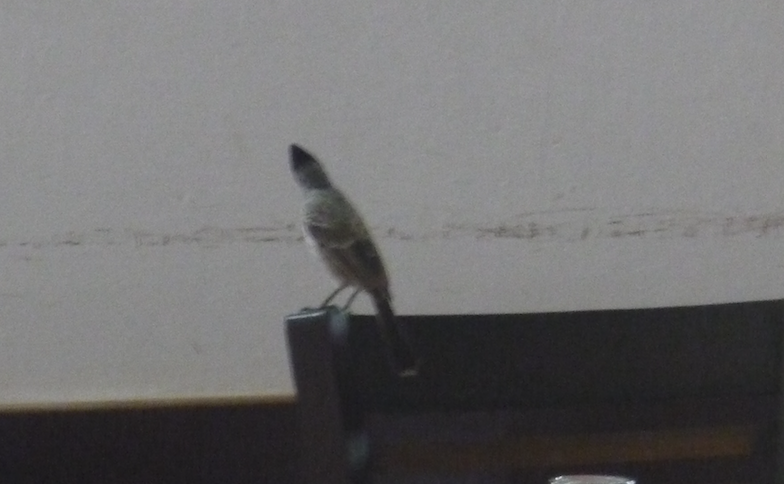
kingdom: Animalia
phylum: Chordata
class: Aves
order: Passeriformes
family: Pycnonotidae
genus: Pycnonotus
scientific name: Pycnonotus cafer
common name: Red-vented bulbul
